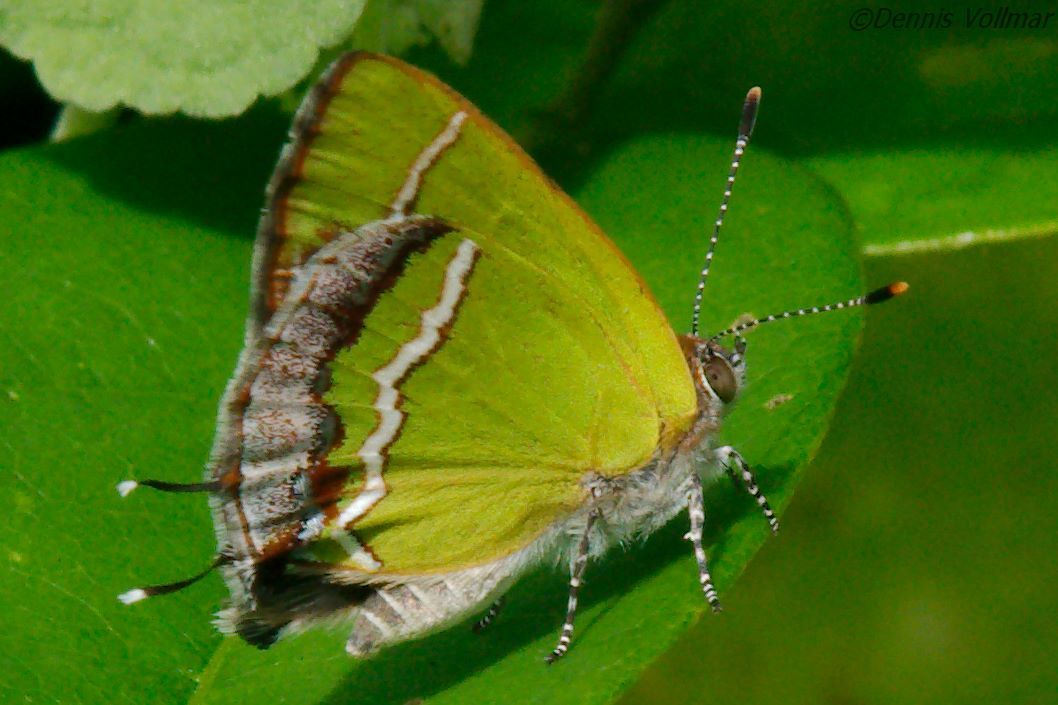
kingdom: Animalia
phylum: Arthropoda
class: Insecta
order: Lepidoptera
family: Lycaenidae
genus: Chlorostrymon
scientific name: Chlorostrymon simaethis
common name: Silver-banded hairstreak
